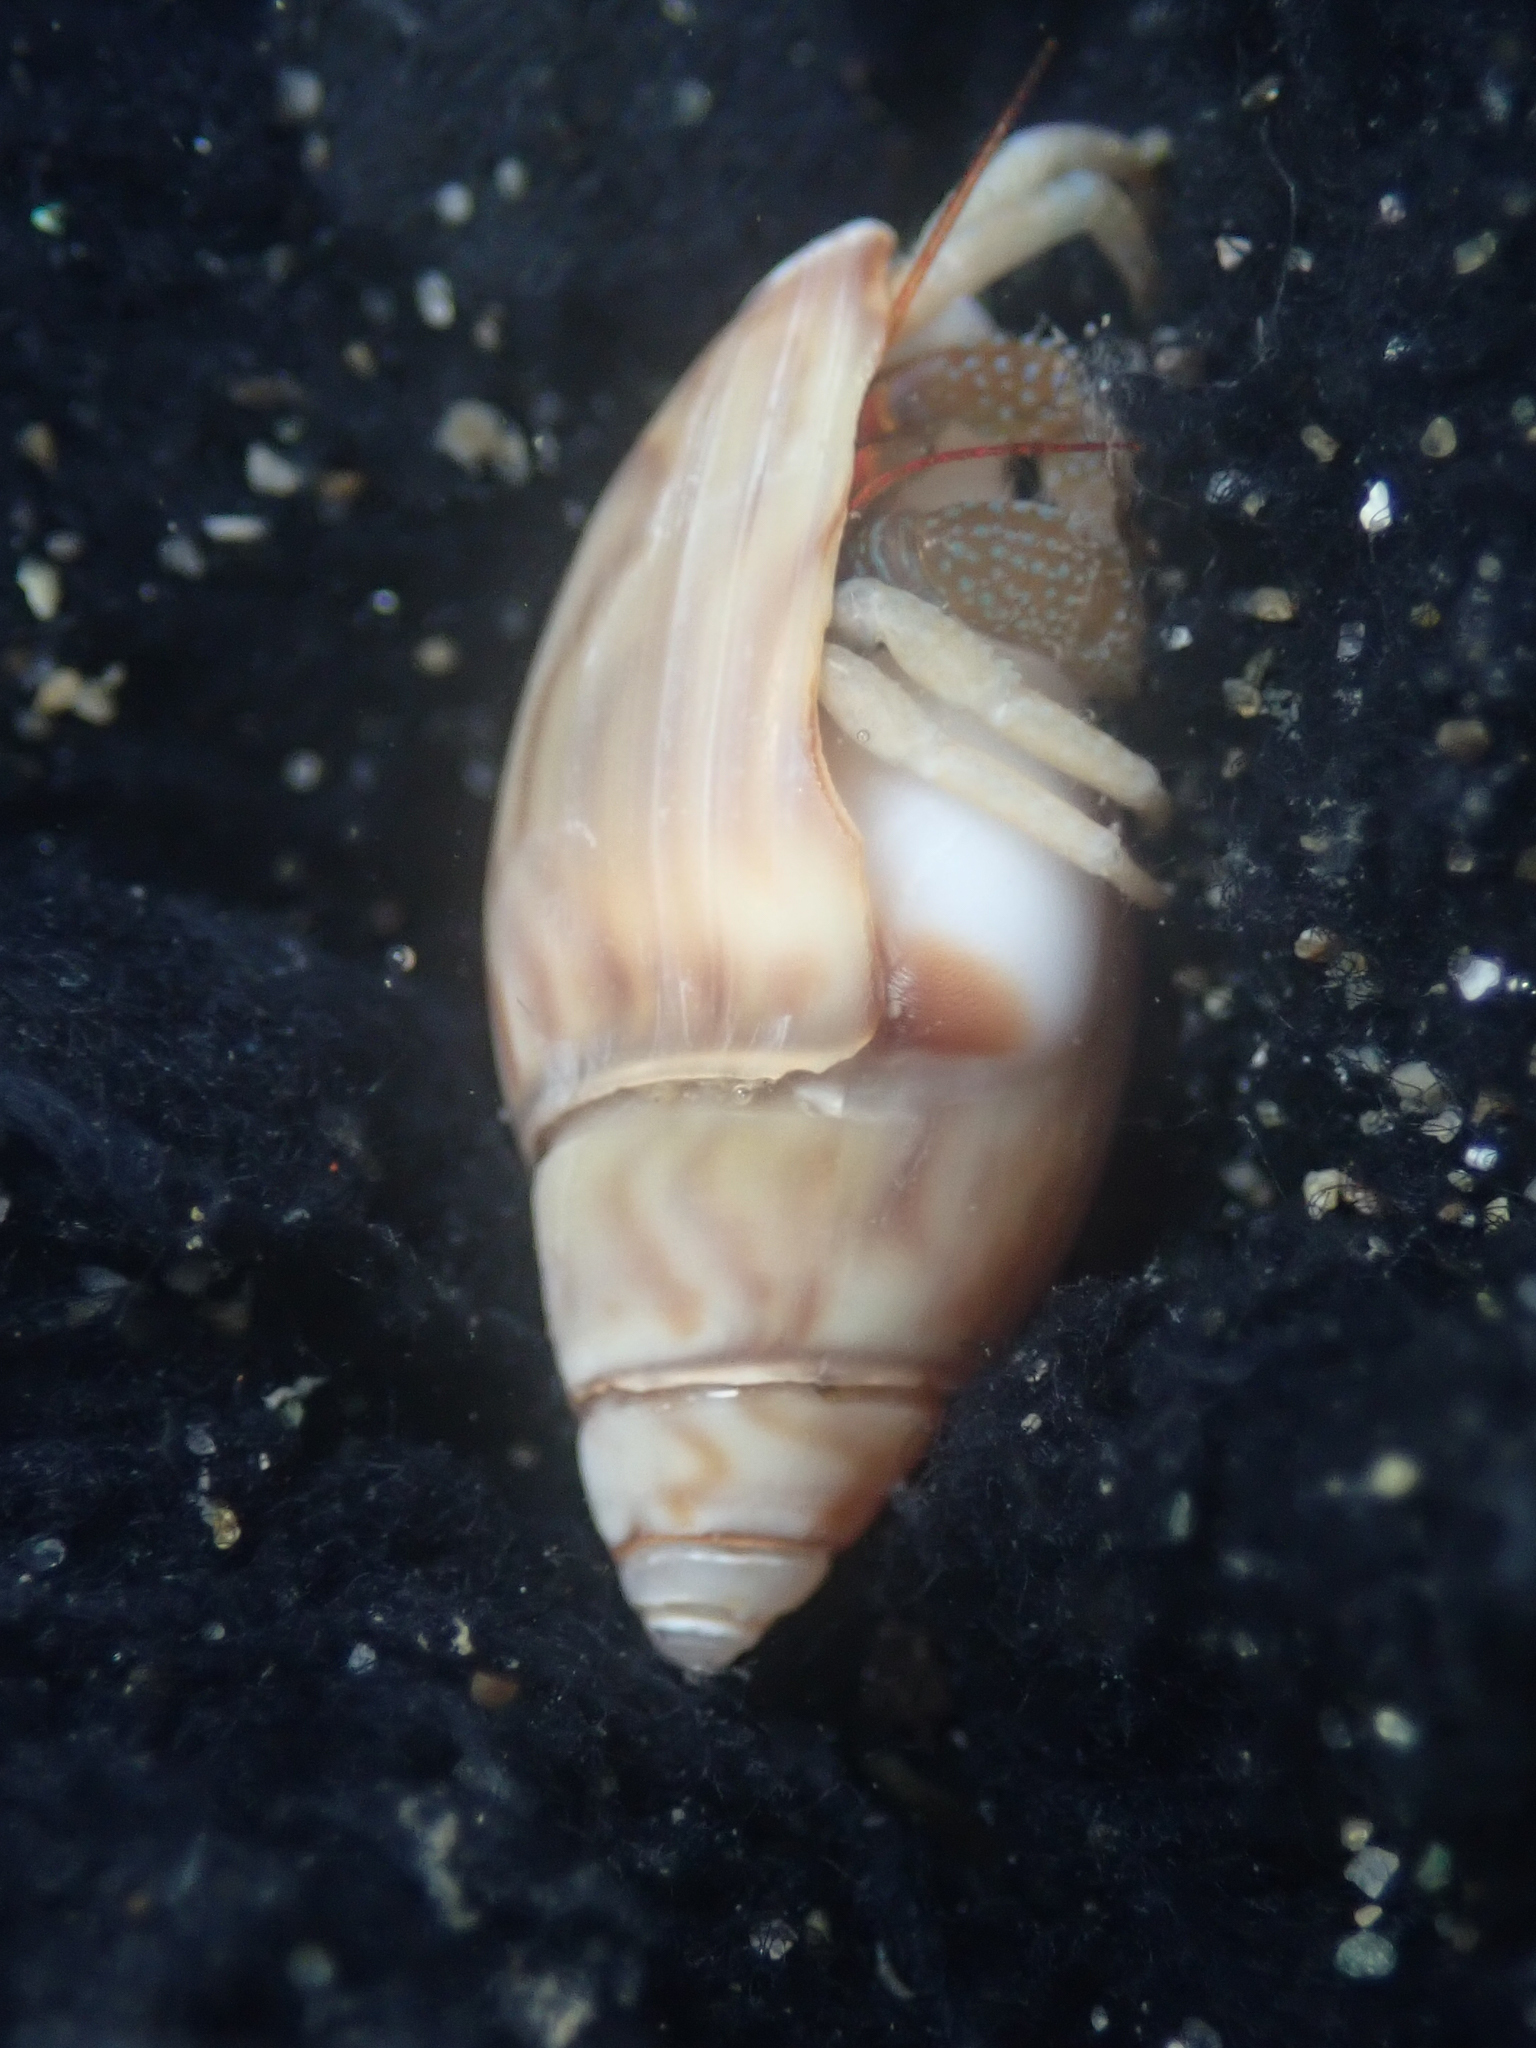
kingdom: Animalia
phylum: Mollusca
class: Gastropoda
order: Neogastropoda
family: Olividae
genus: Callianax
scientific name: Callianax strigata
